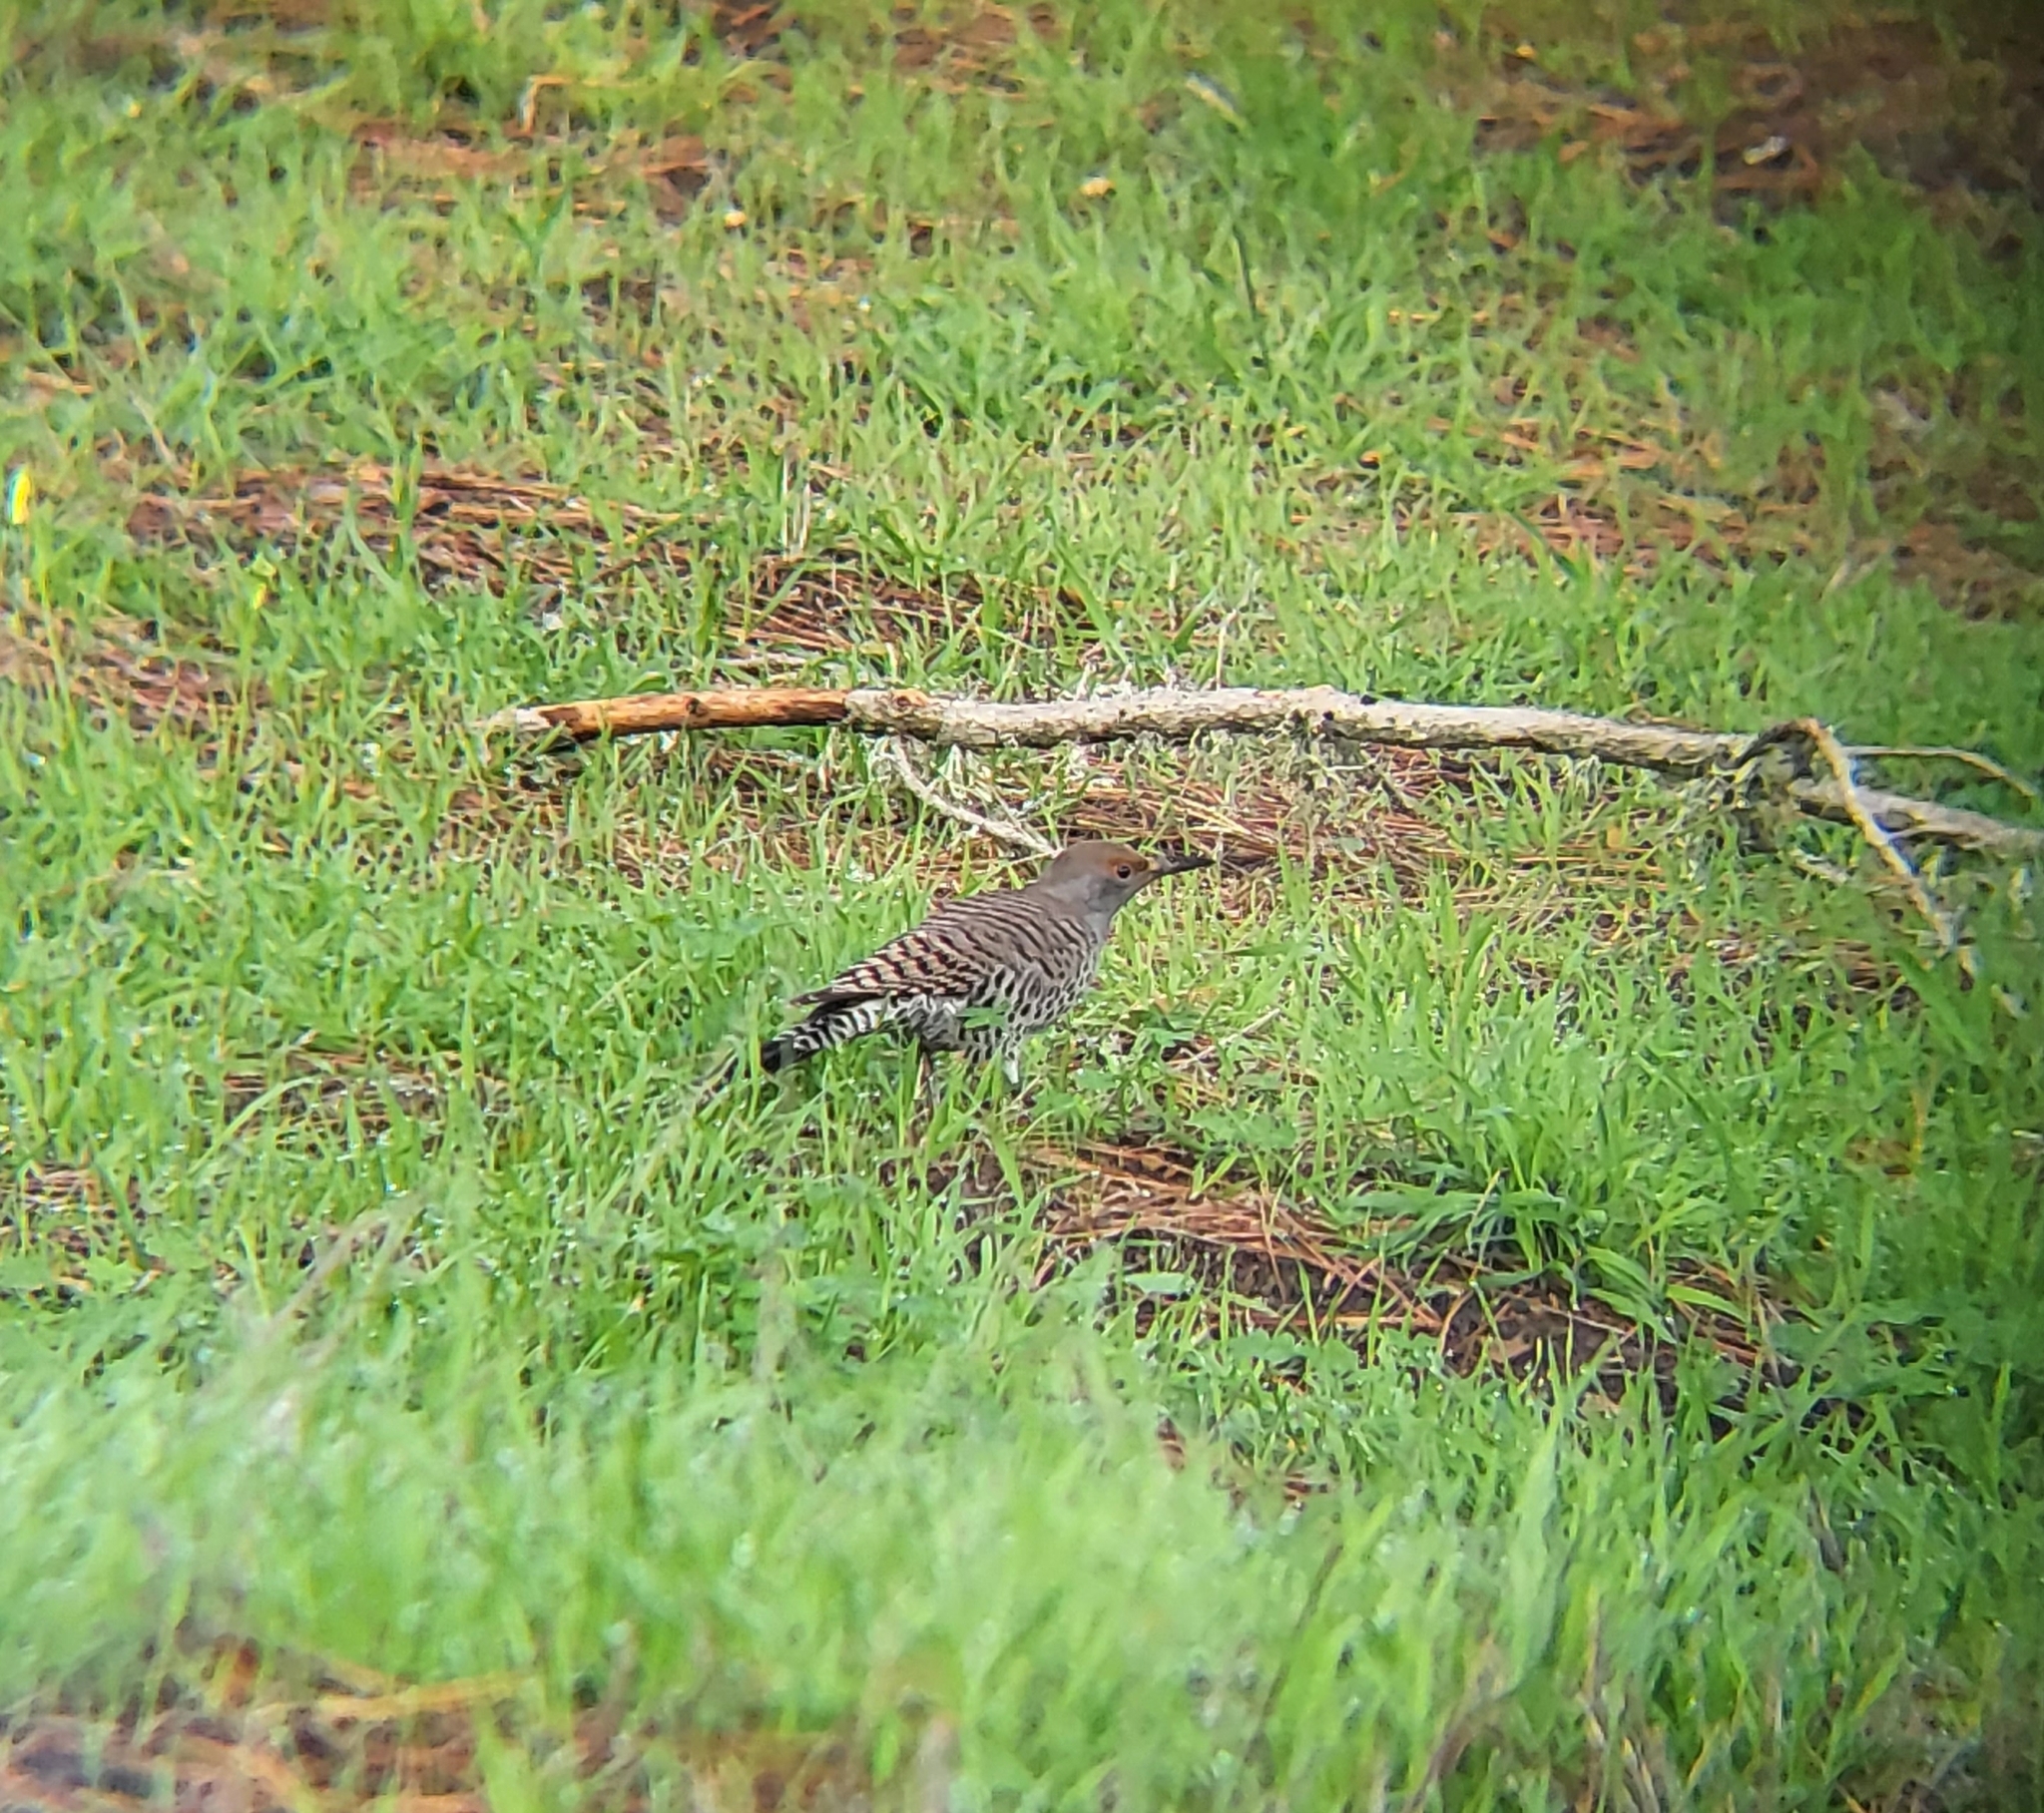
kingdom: Animalia
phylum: Chordata
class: Aves
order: Piciformes
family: Picidae
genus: Colaptes
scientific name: Colaptes auratus
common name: Northern flicker
